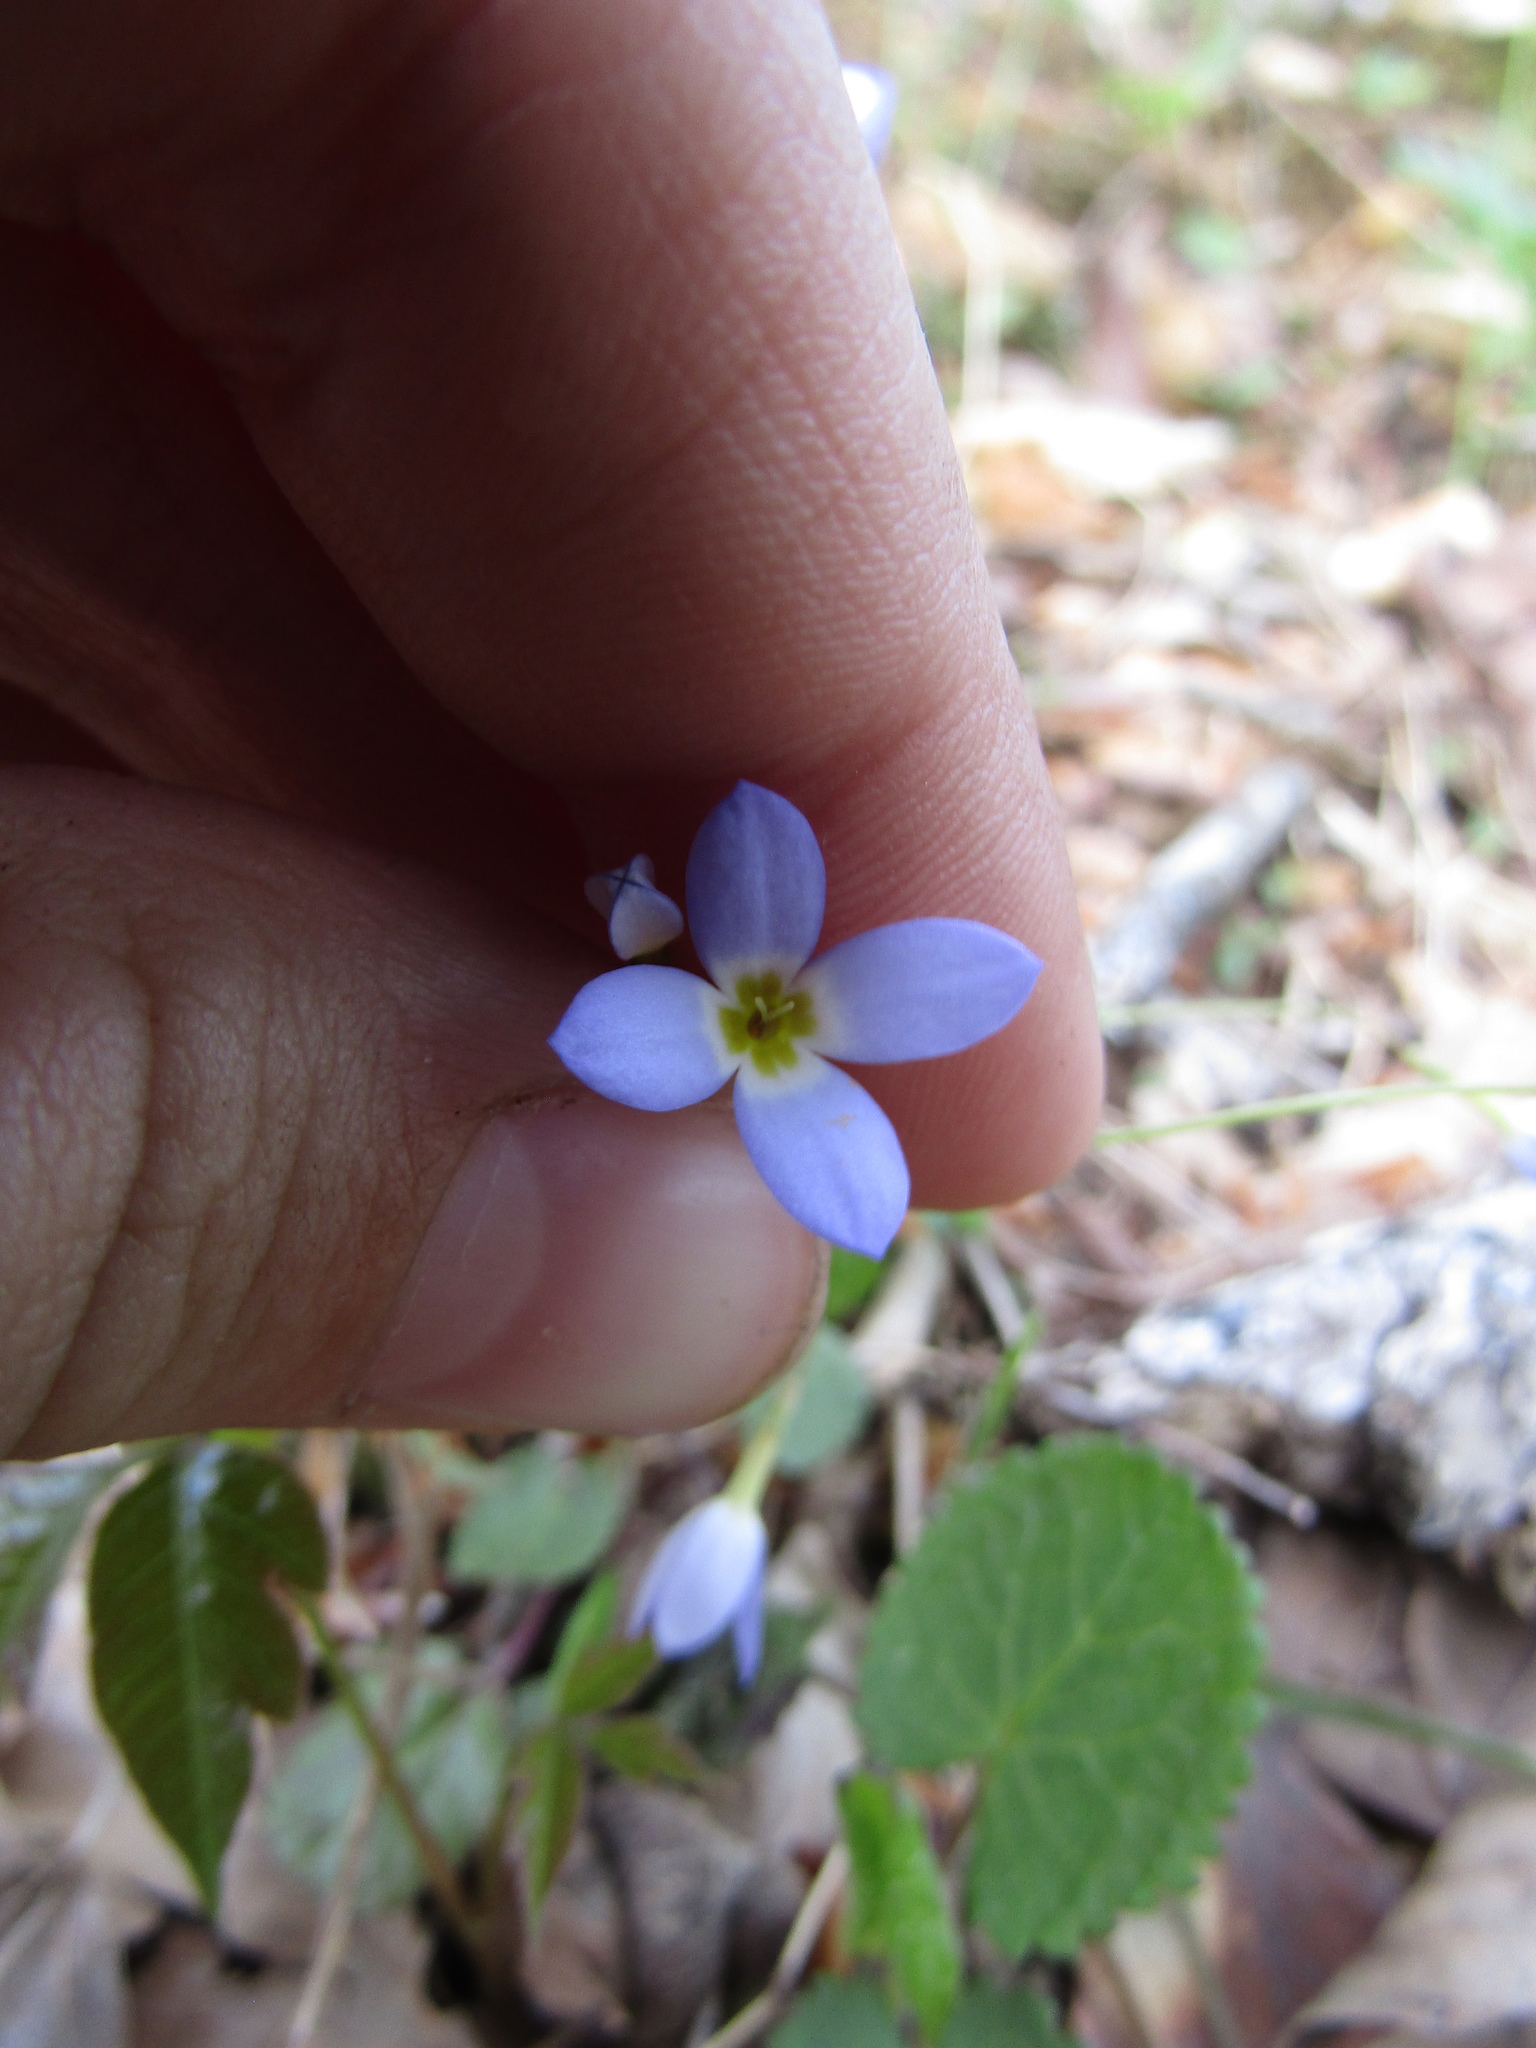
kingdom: Plantae
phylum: Tracheophyta
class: Magnoliopsida
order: Gentianales
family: Rubiaceae
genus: Houstonia
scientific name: Houstonia caerulea
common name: Bluets
